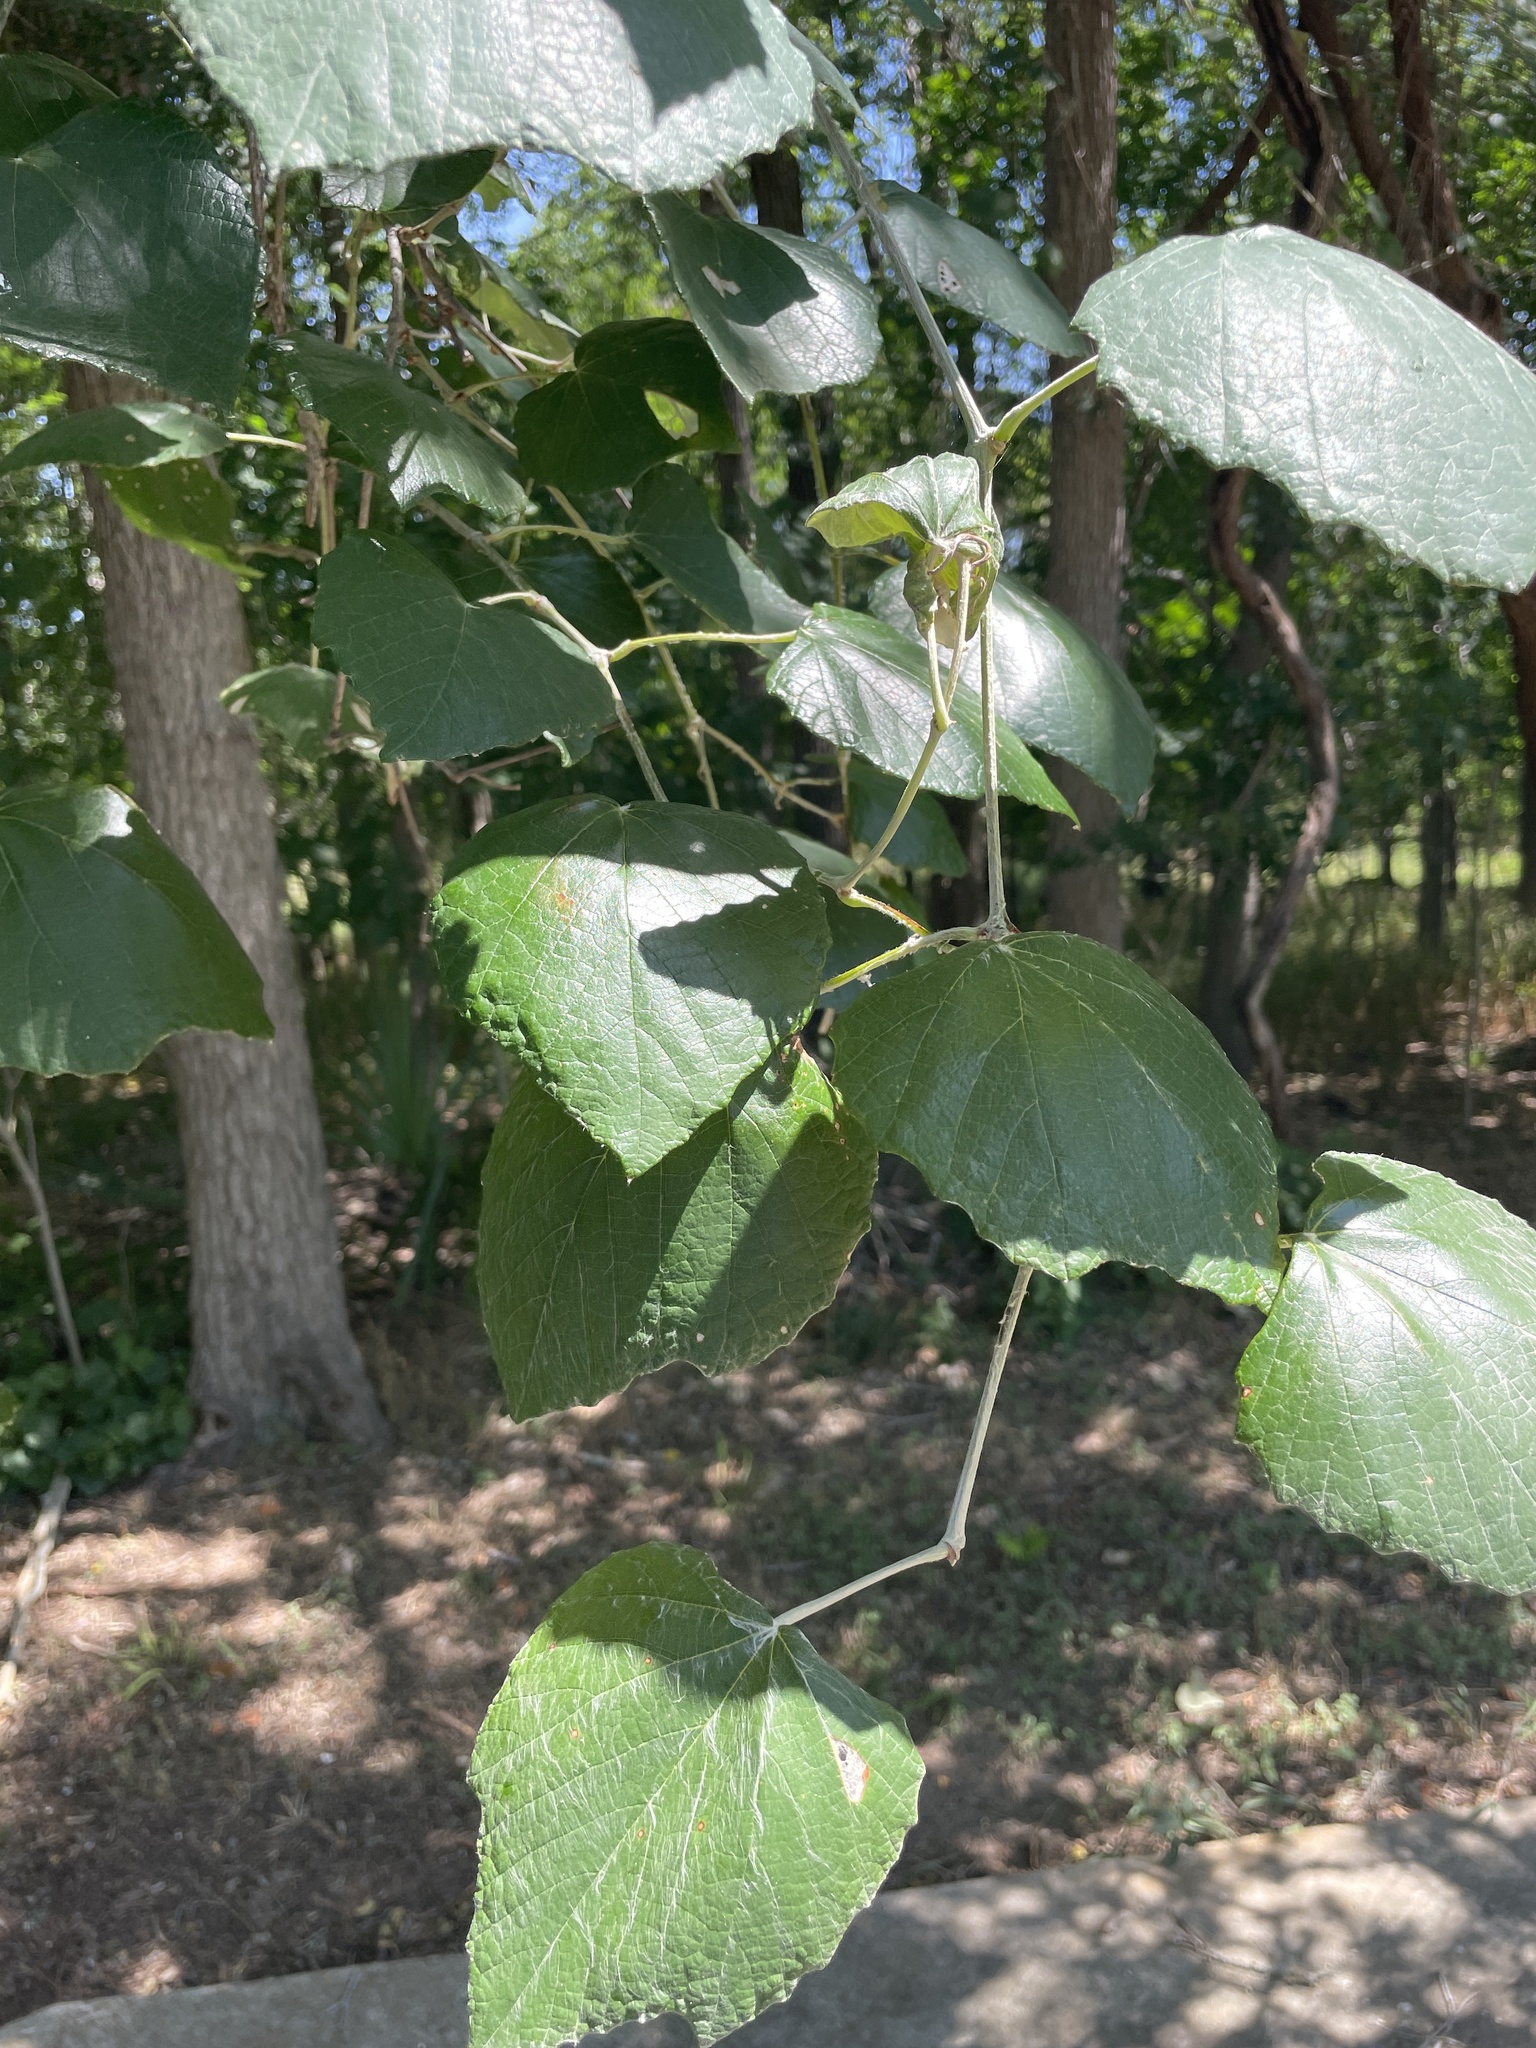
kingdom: Plantae
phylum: Tracheophyta
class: Magnoliopsida
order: Vitales
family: Vitaceae
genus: Vitis
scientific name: Vitis mustangensis
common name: Mustang grape
